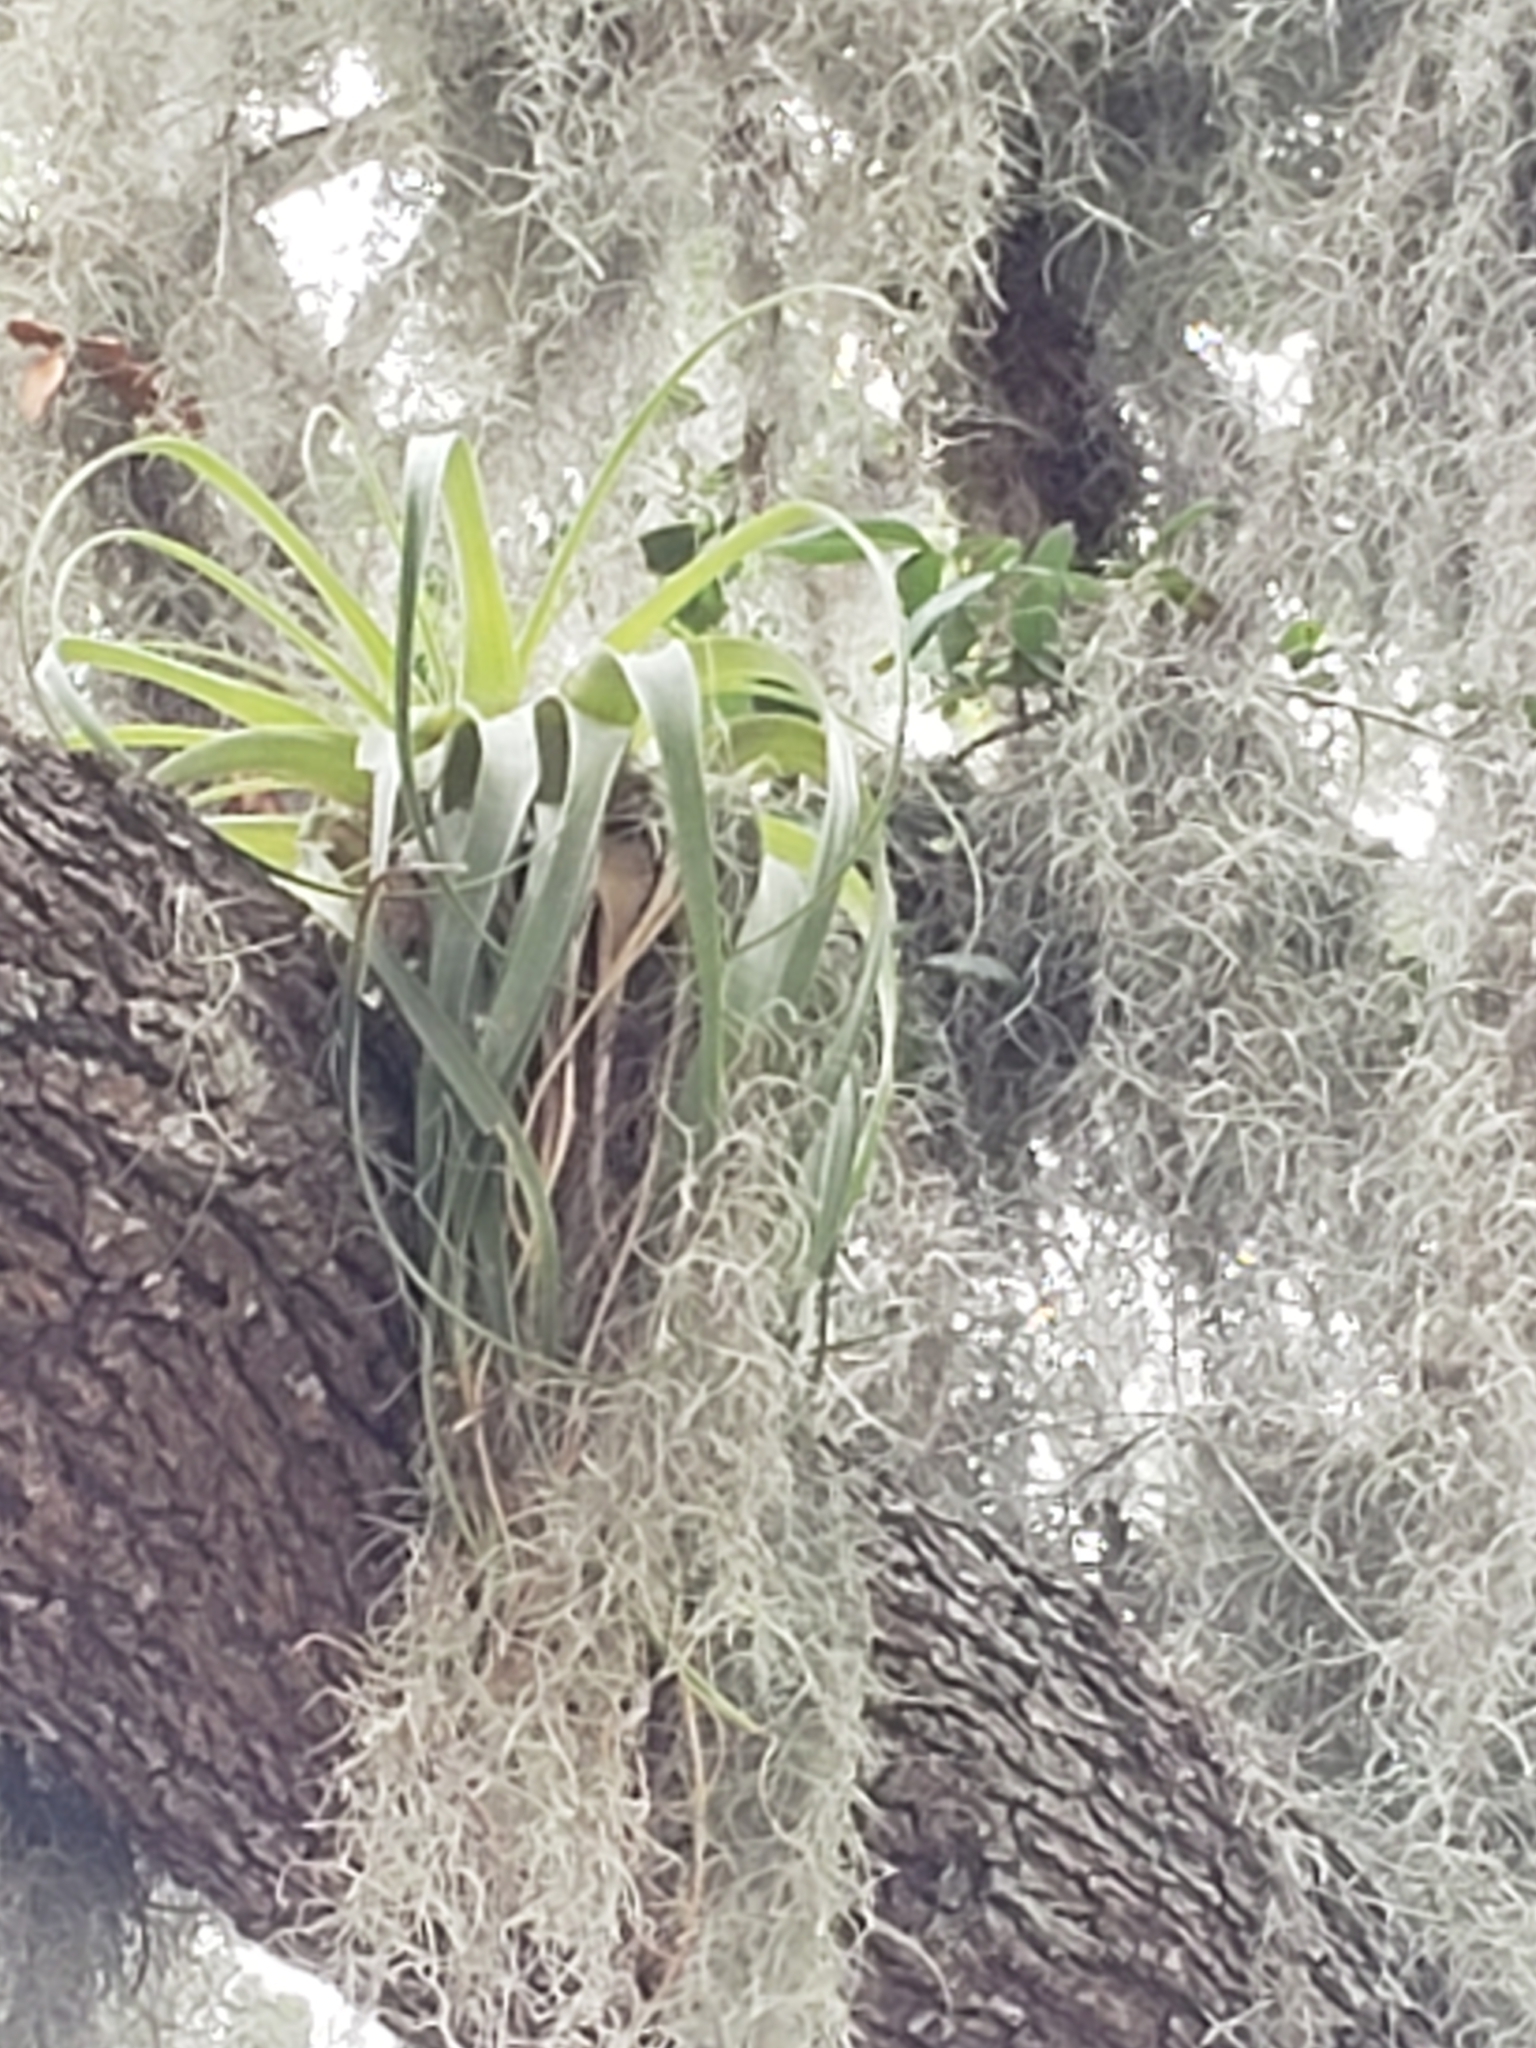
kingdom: Plantae
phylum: Tracheophyta
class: Liliopsida
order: Poales
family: Bromeliaceae
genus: Tillandsia
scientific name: Tillandsia utriculata
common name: Wild pine
